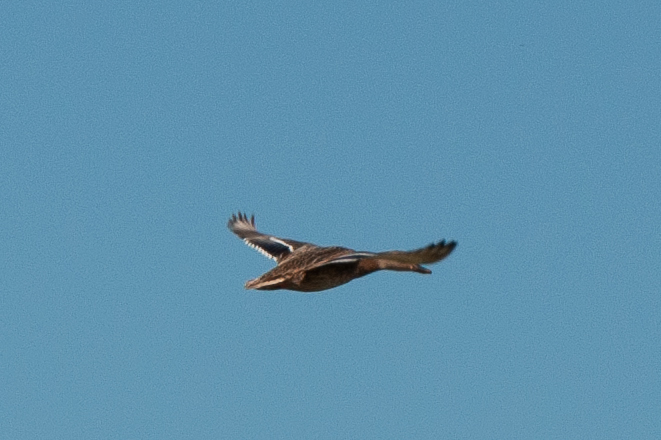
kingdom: Animalia
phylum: Chordata
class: Aves
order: Anseriformes
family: Anatidae
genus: Anas
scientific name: Anas platyrhynchos
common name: Mallard
